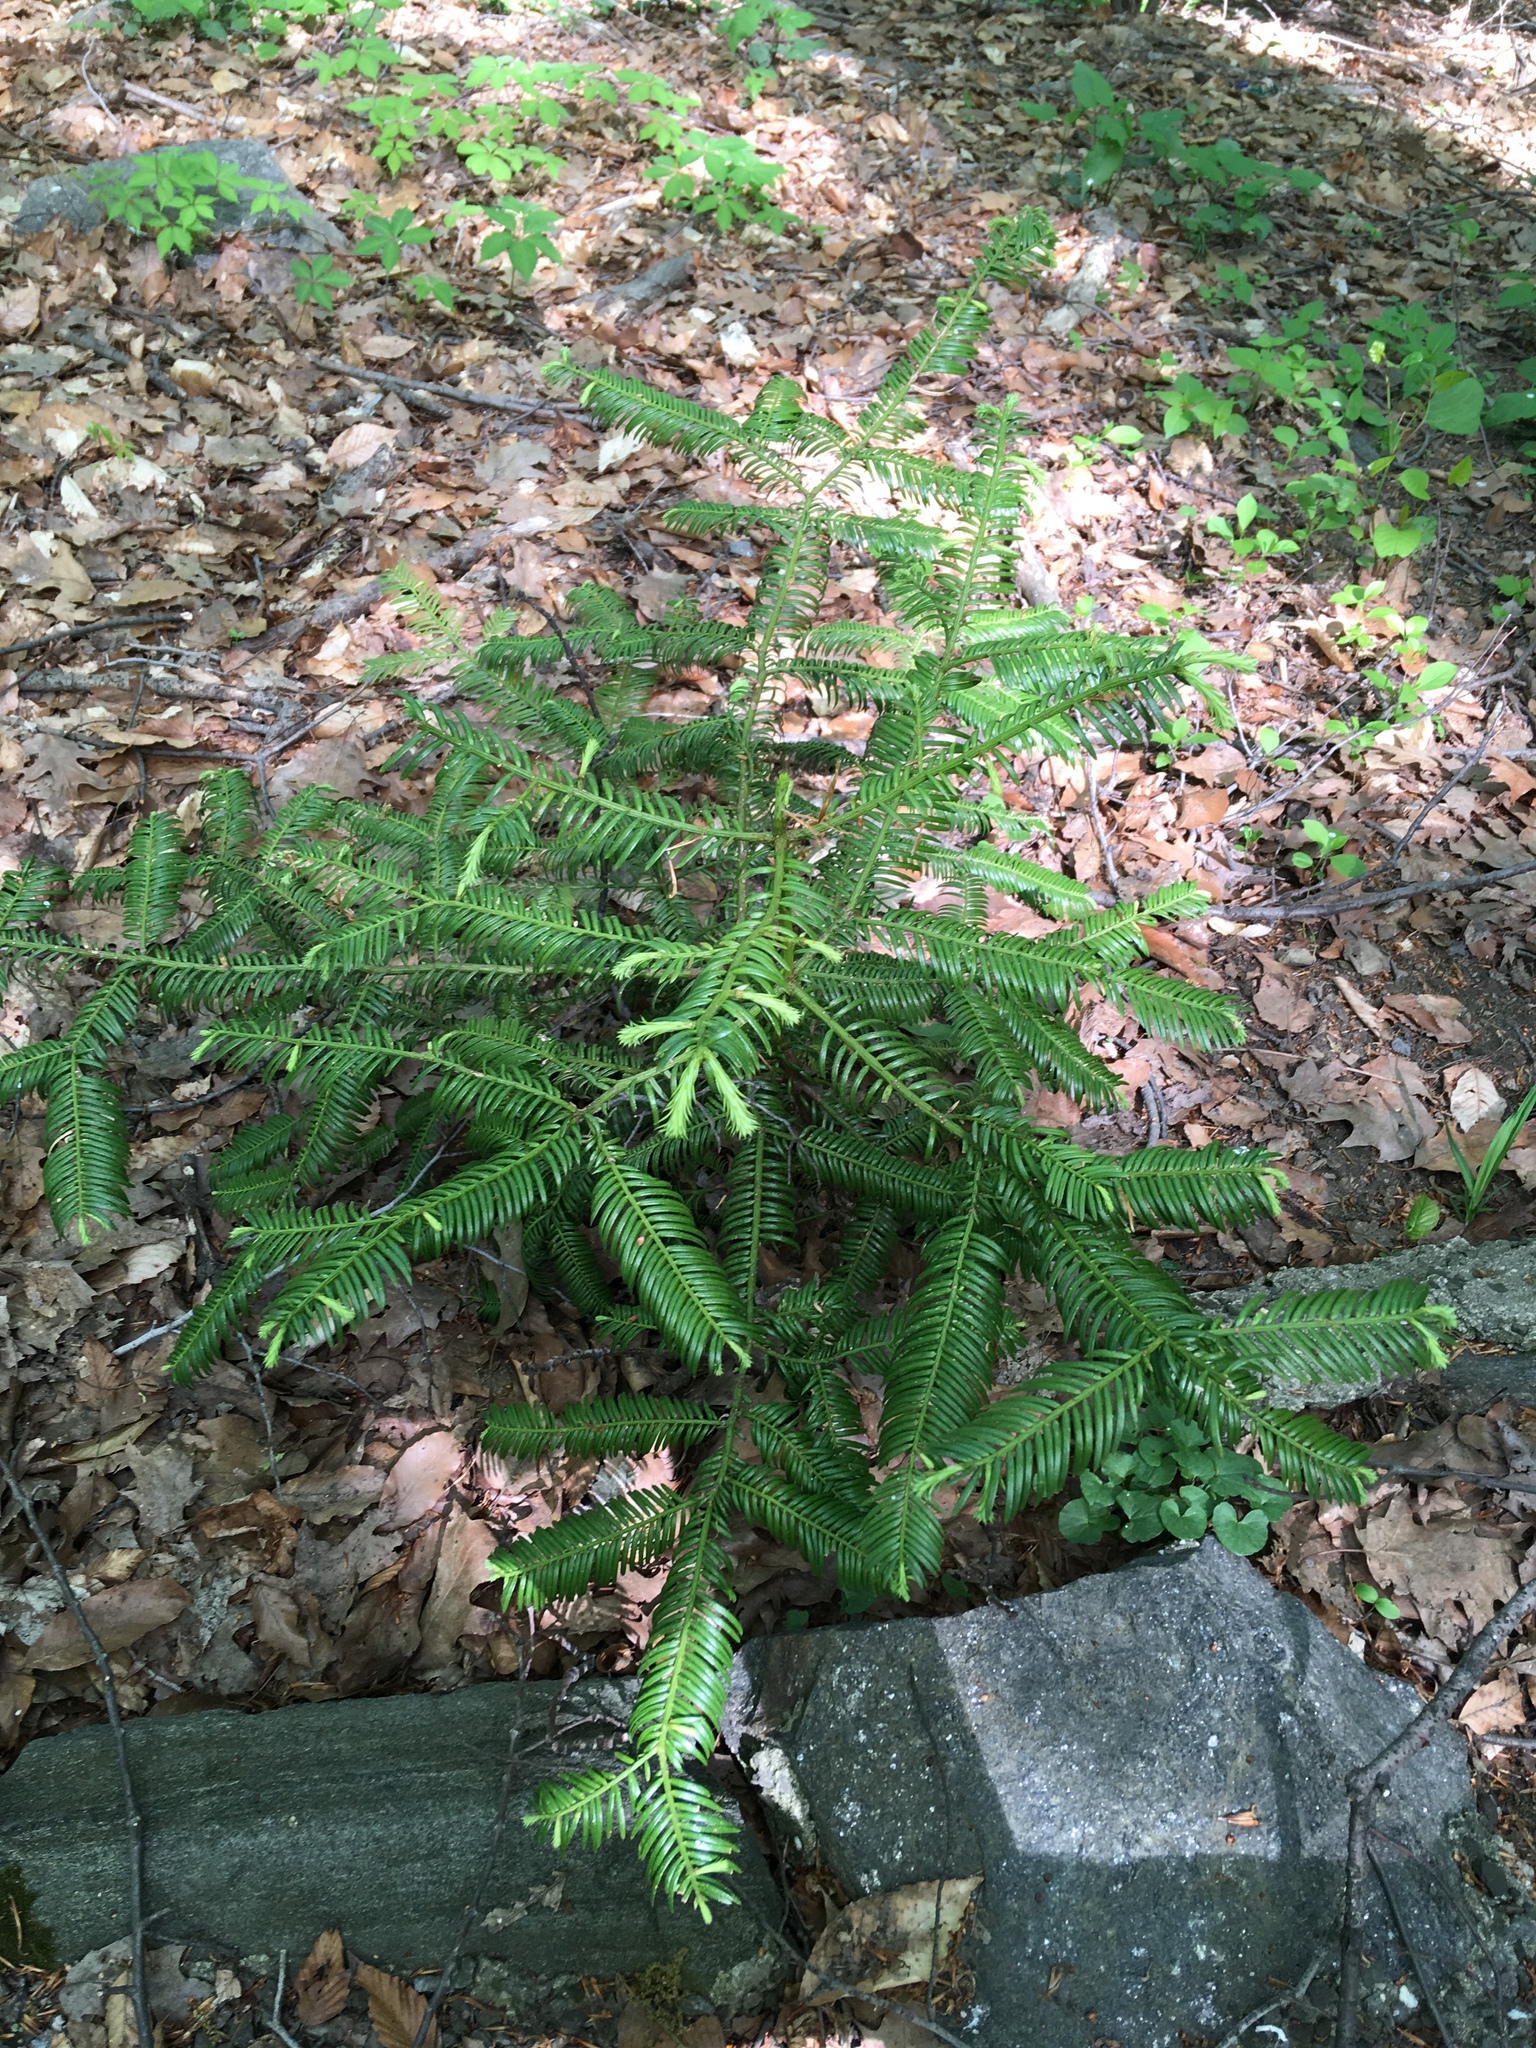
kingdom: Plantae
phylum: Tracheophyta
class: Pinopsida
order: Pinales
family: Cephalotaxaceae
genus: Cephalotaxus
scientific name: Cephalotaxus harringtonia
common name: Japanese plum-yew
